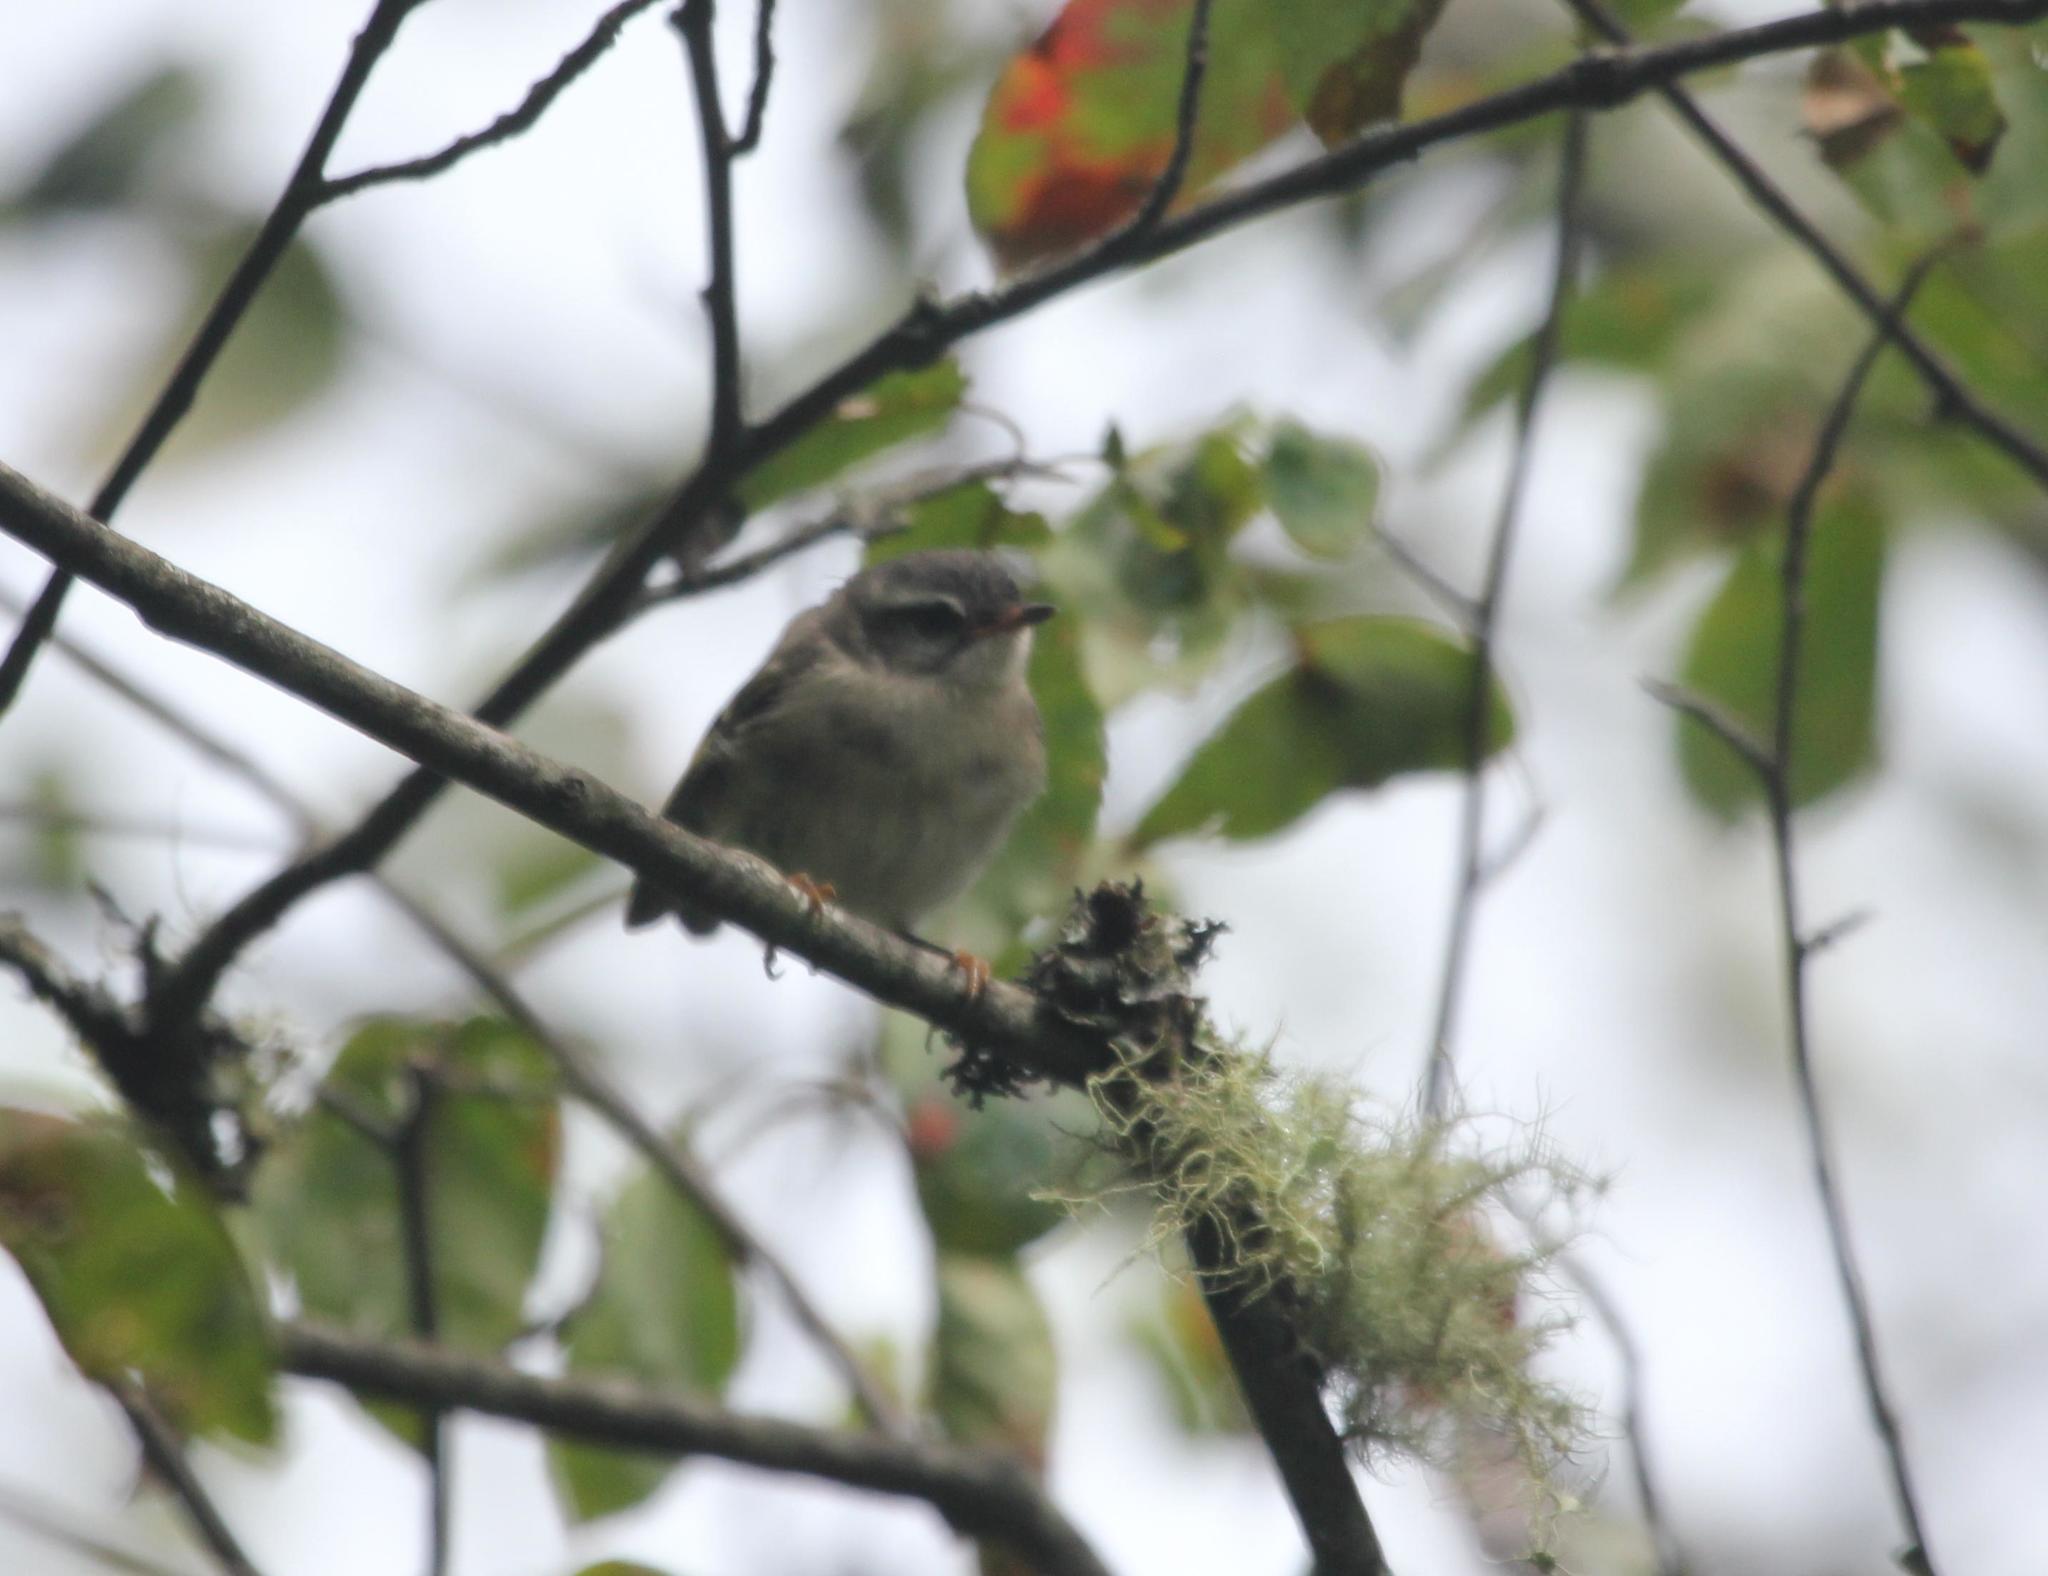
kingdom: Animalia
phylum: Chordata
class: Aves
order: Passeriformes
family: Regulidae
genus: Regulus
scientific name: Regulus satrapa
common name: Golden-crowned kinglet
